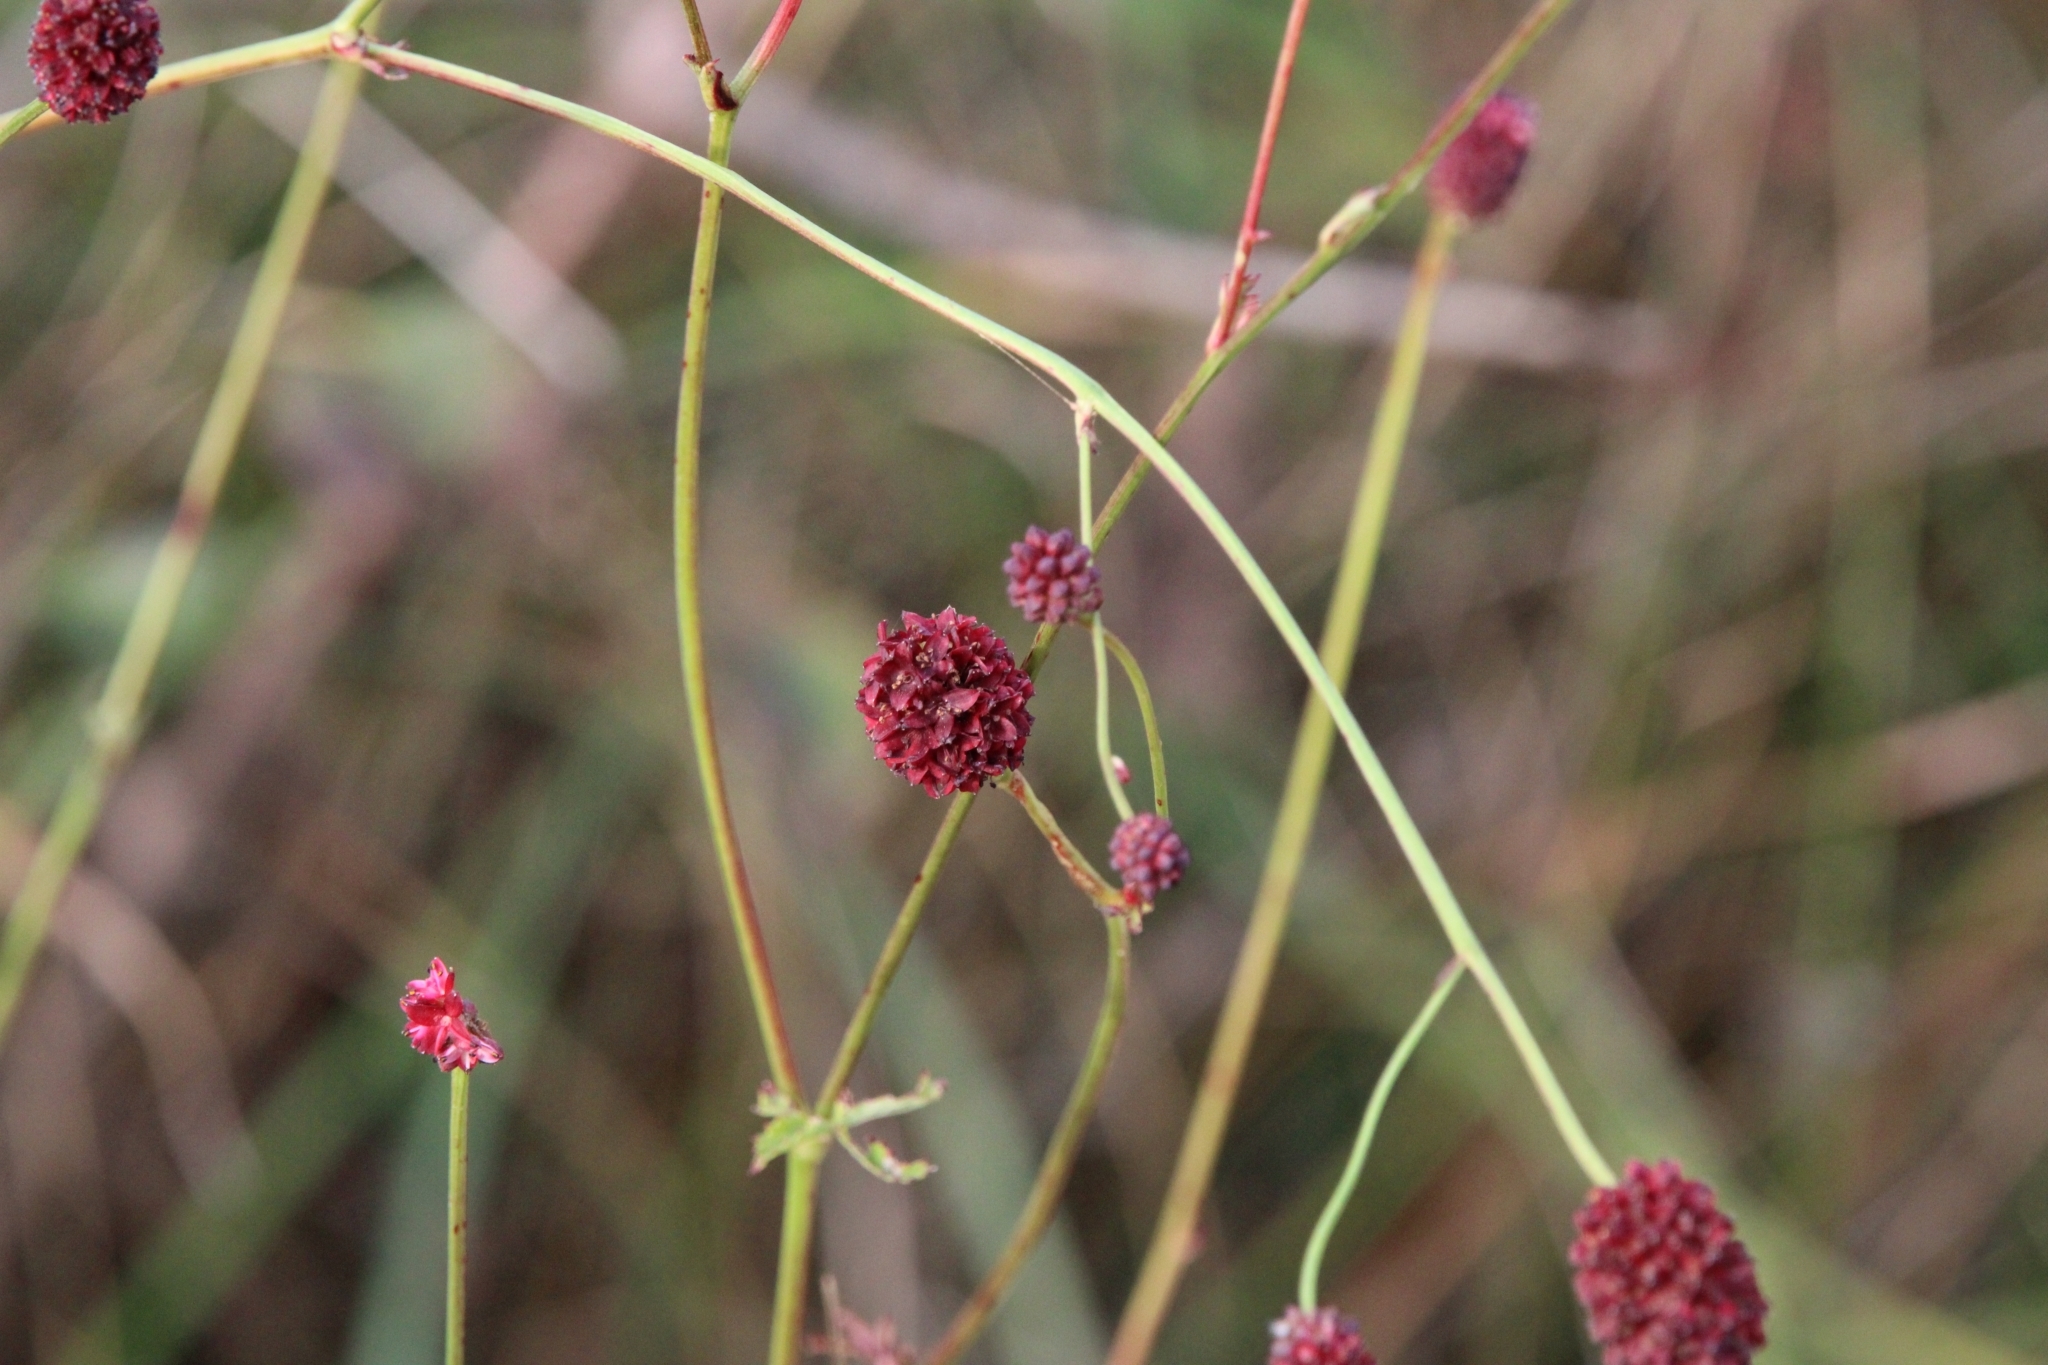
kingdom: Plantae
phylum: Tracheophyta
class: Magnoliopsida
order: Rosales
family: Rosaceae
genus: Sanguisorba
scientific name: Sanguisorba officinalis
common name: Great burnet
